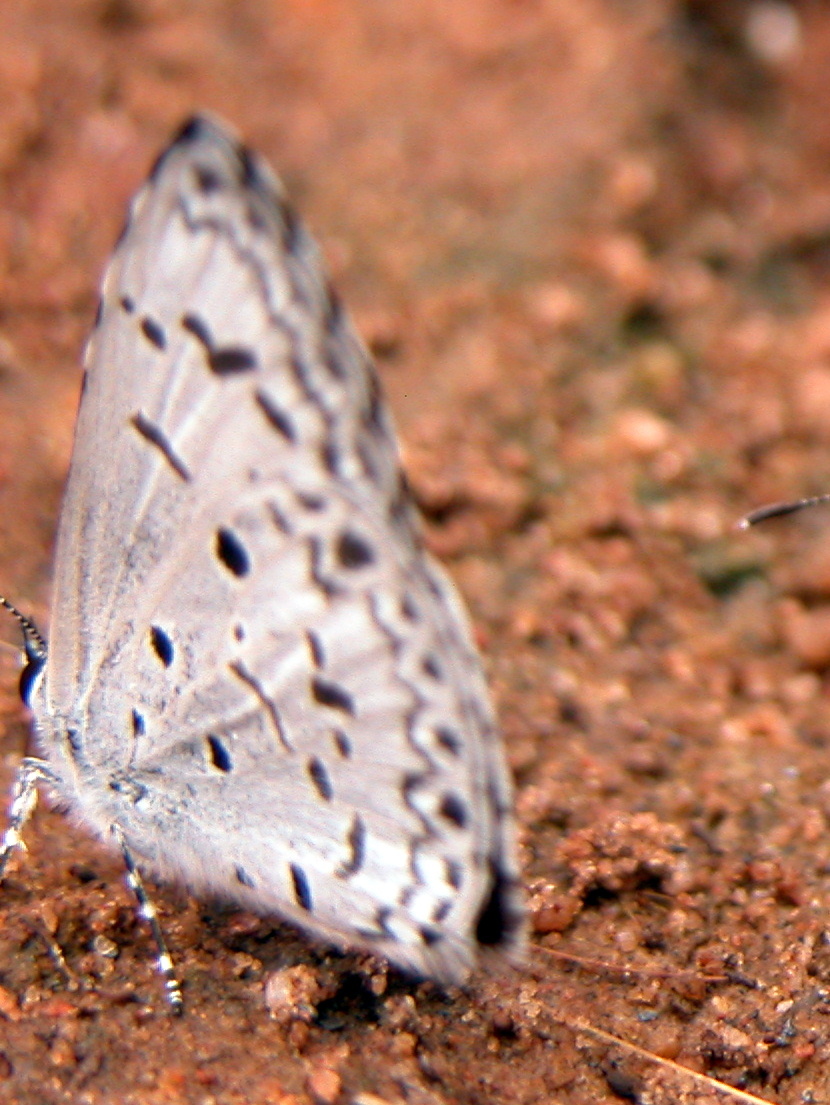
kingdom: Animalia
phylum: Arthropoda
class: Insecta
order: Lepidoptera
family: Lycaenidae
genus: Acytolepis
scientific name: Acytolepis puspa
